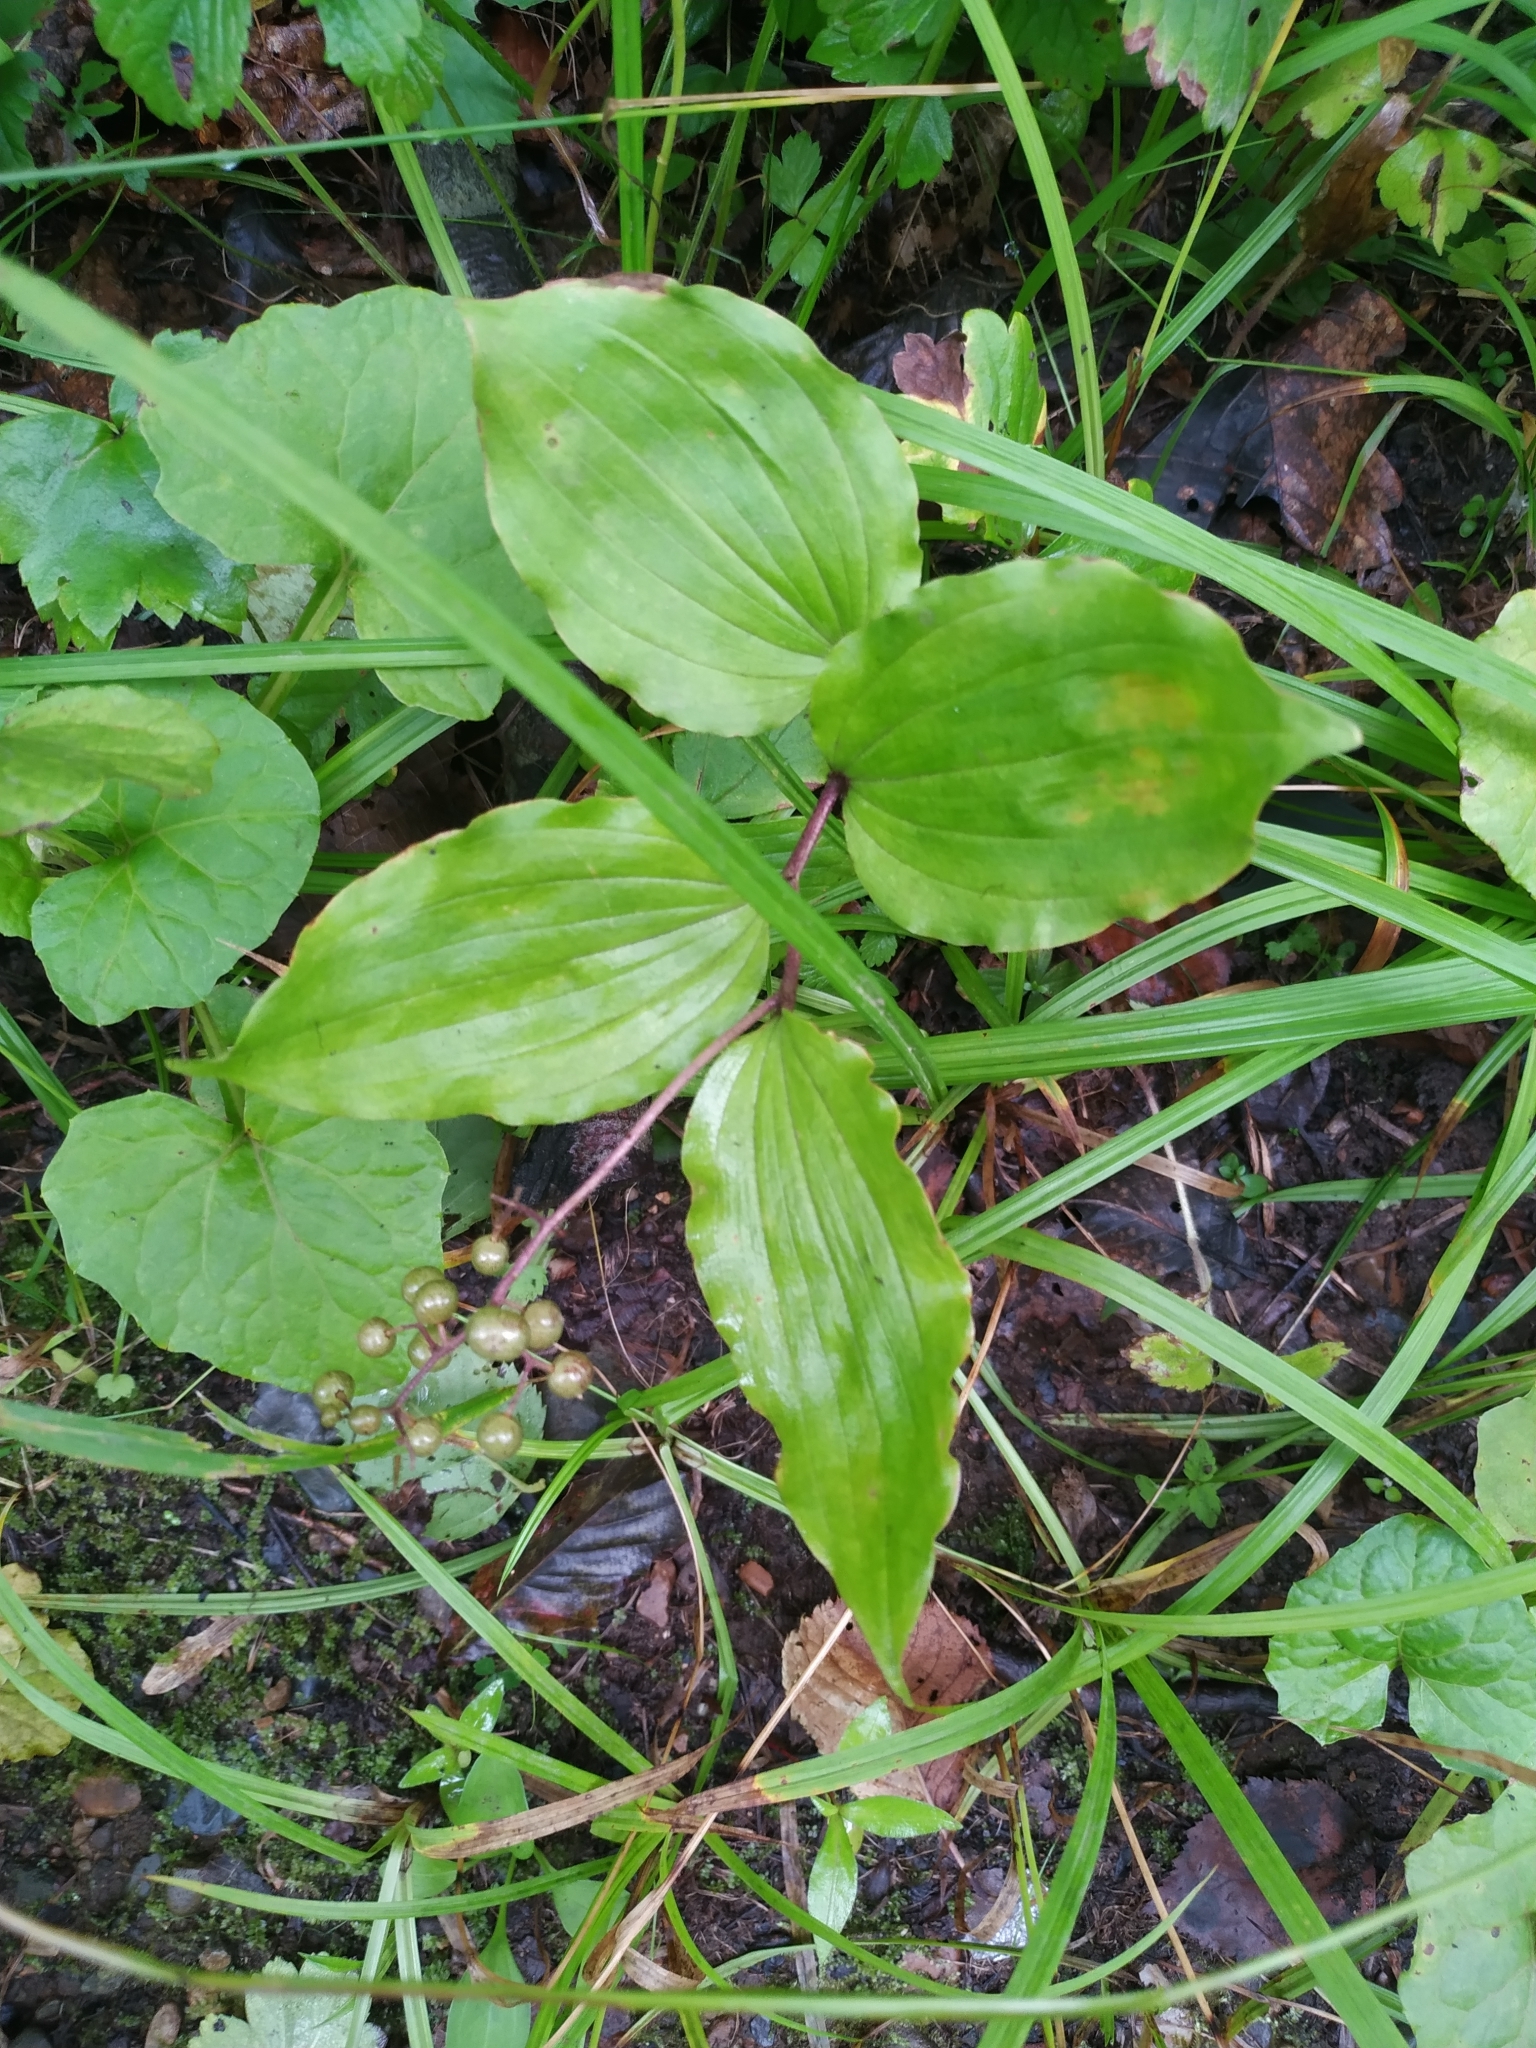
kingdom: Plantae
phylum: Tracheophyta
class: Liliopsida
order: Asparagales
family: Asparagaceae
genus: Maianthemum
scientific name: Maianthemum japonicum
